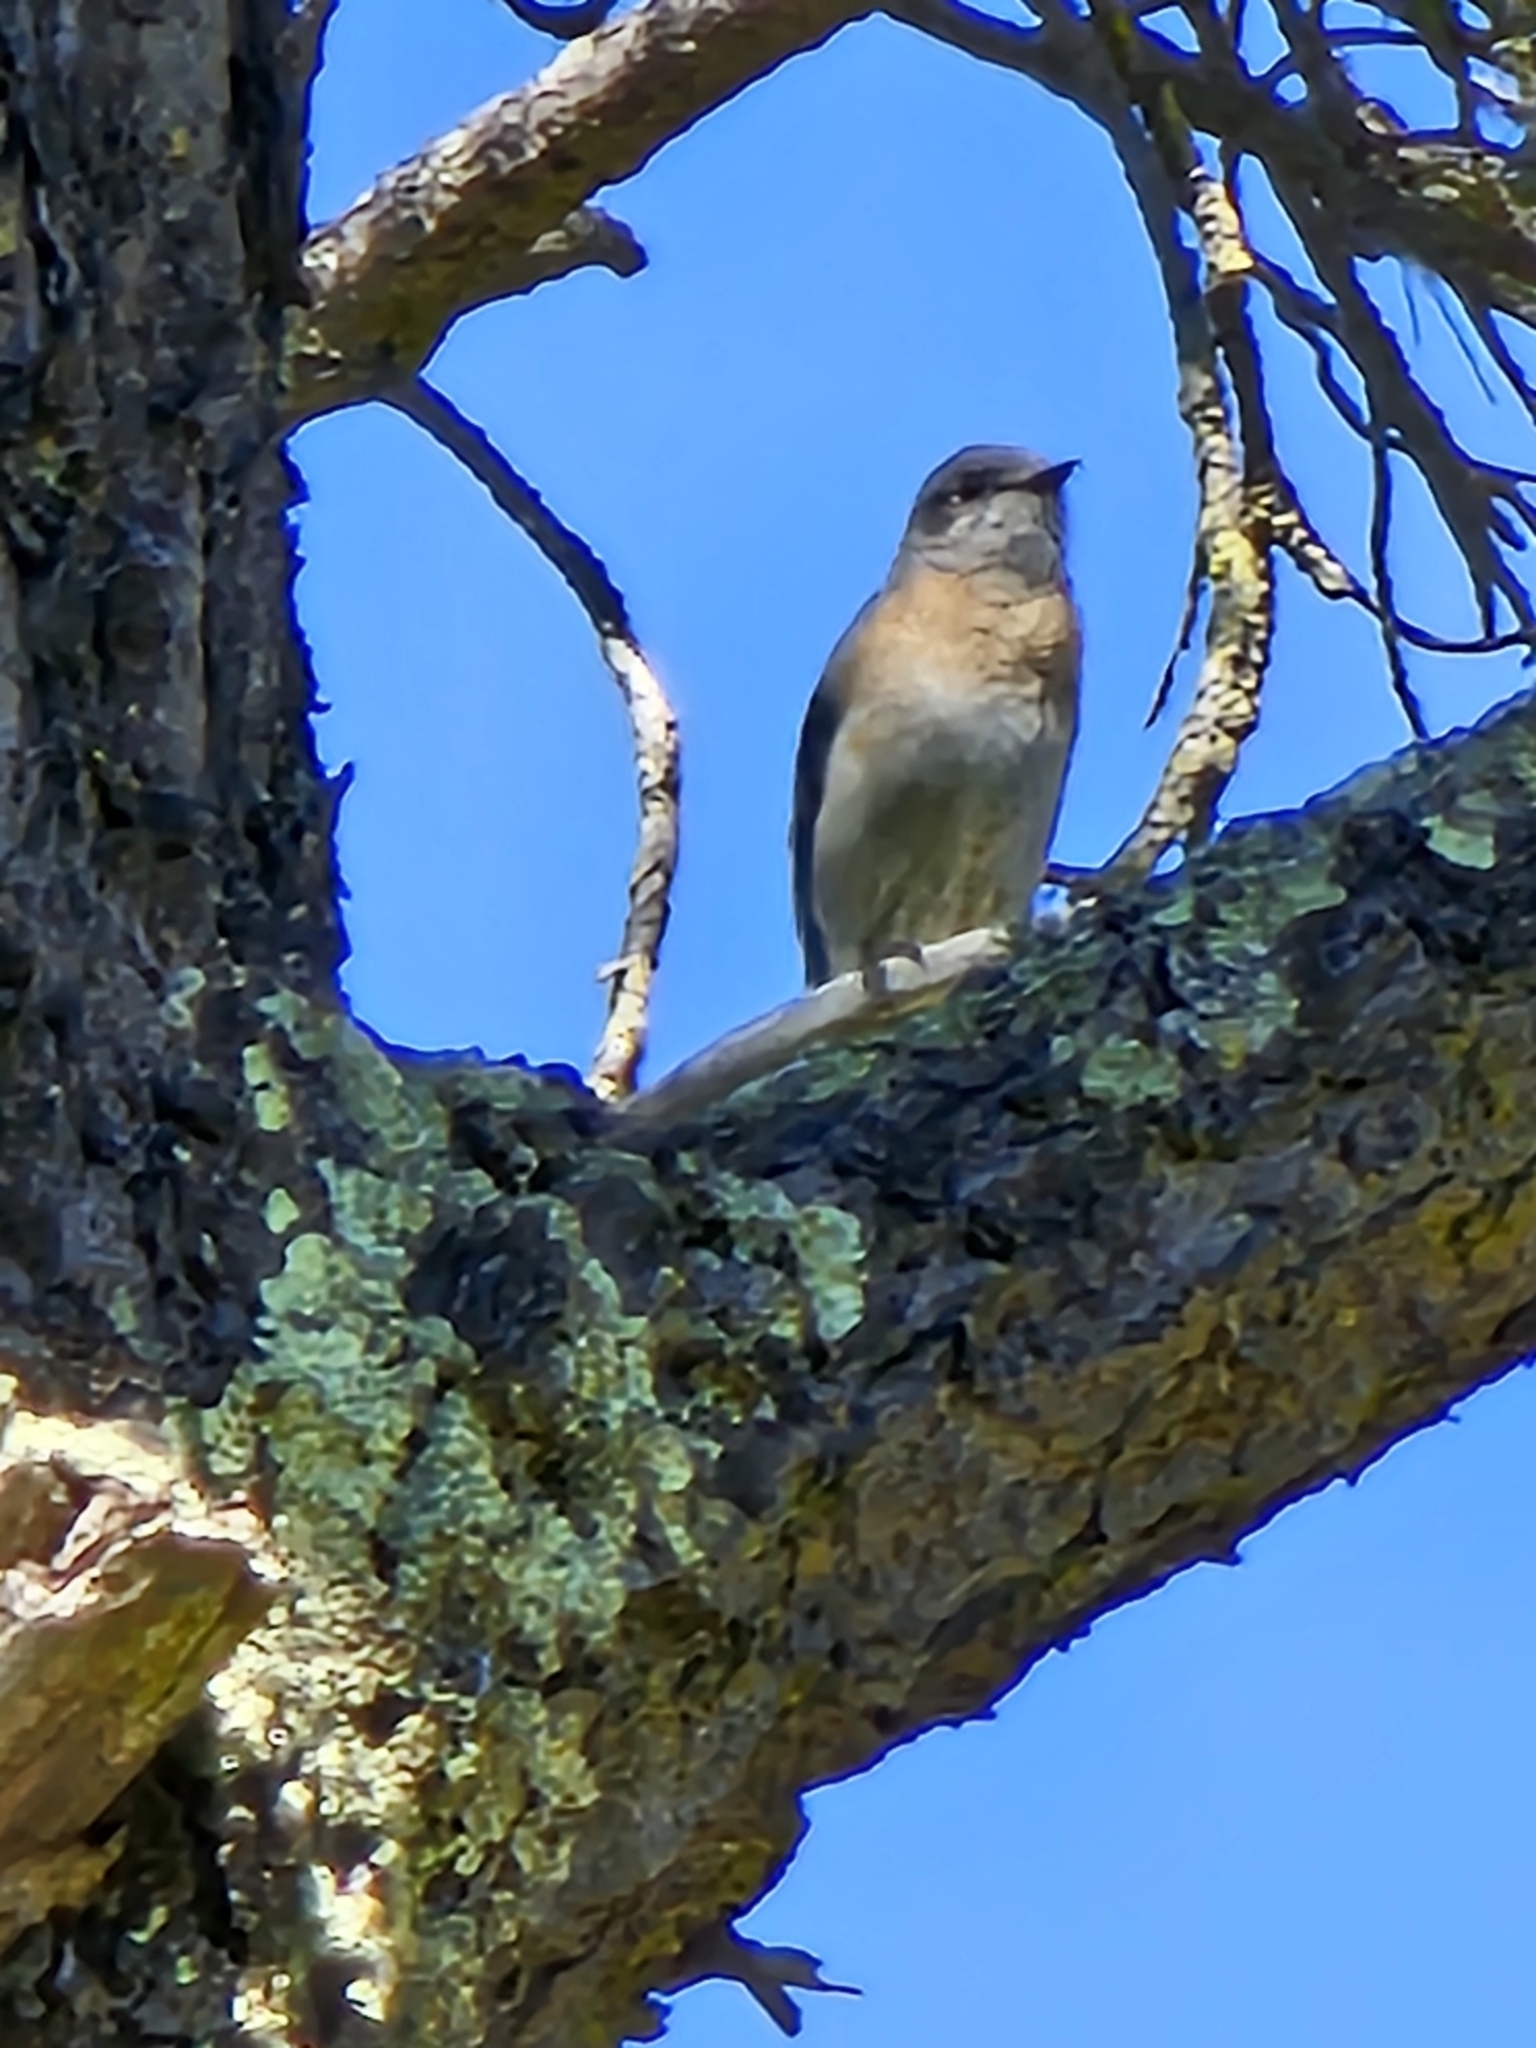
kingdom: Animalia
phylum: Chordata
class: Aves
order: Passeriformes
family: Turdidae
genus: Sialia
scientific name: Sialia mexicana
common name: Western bluebird
